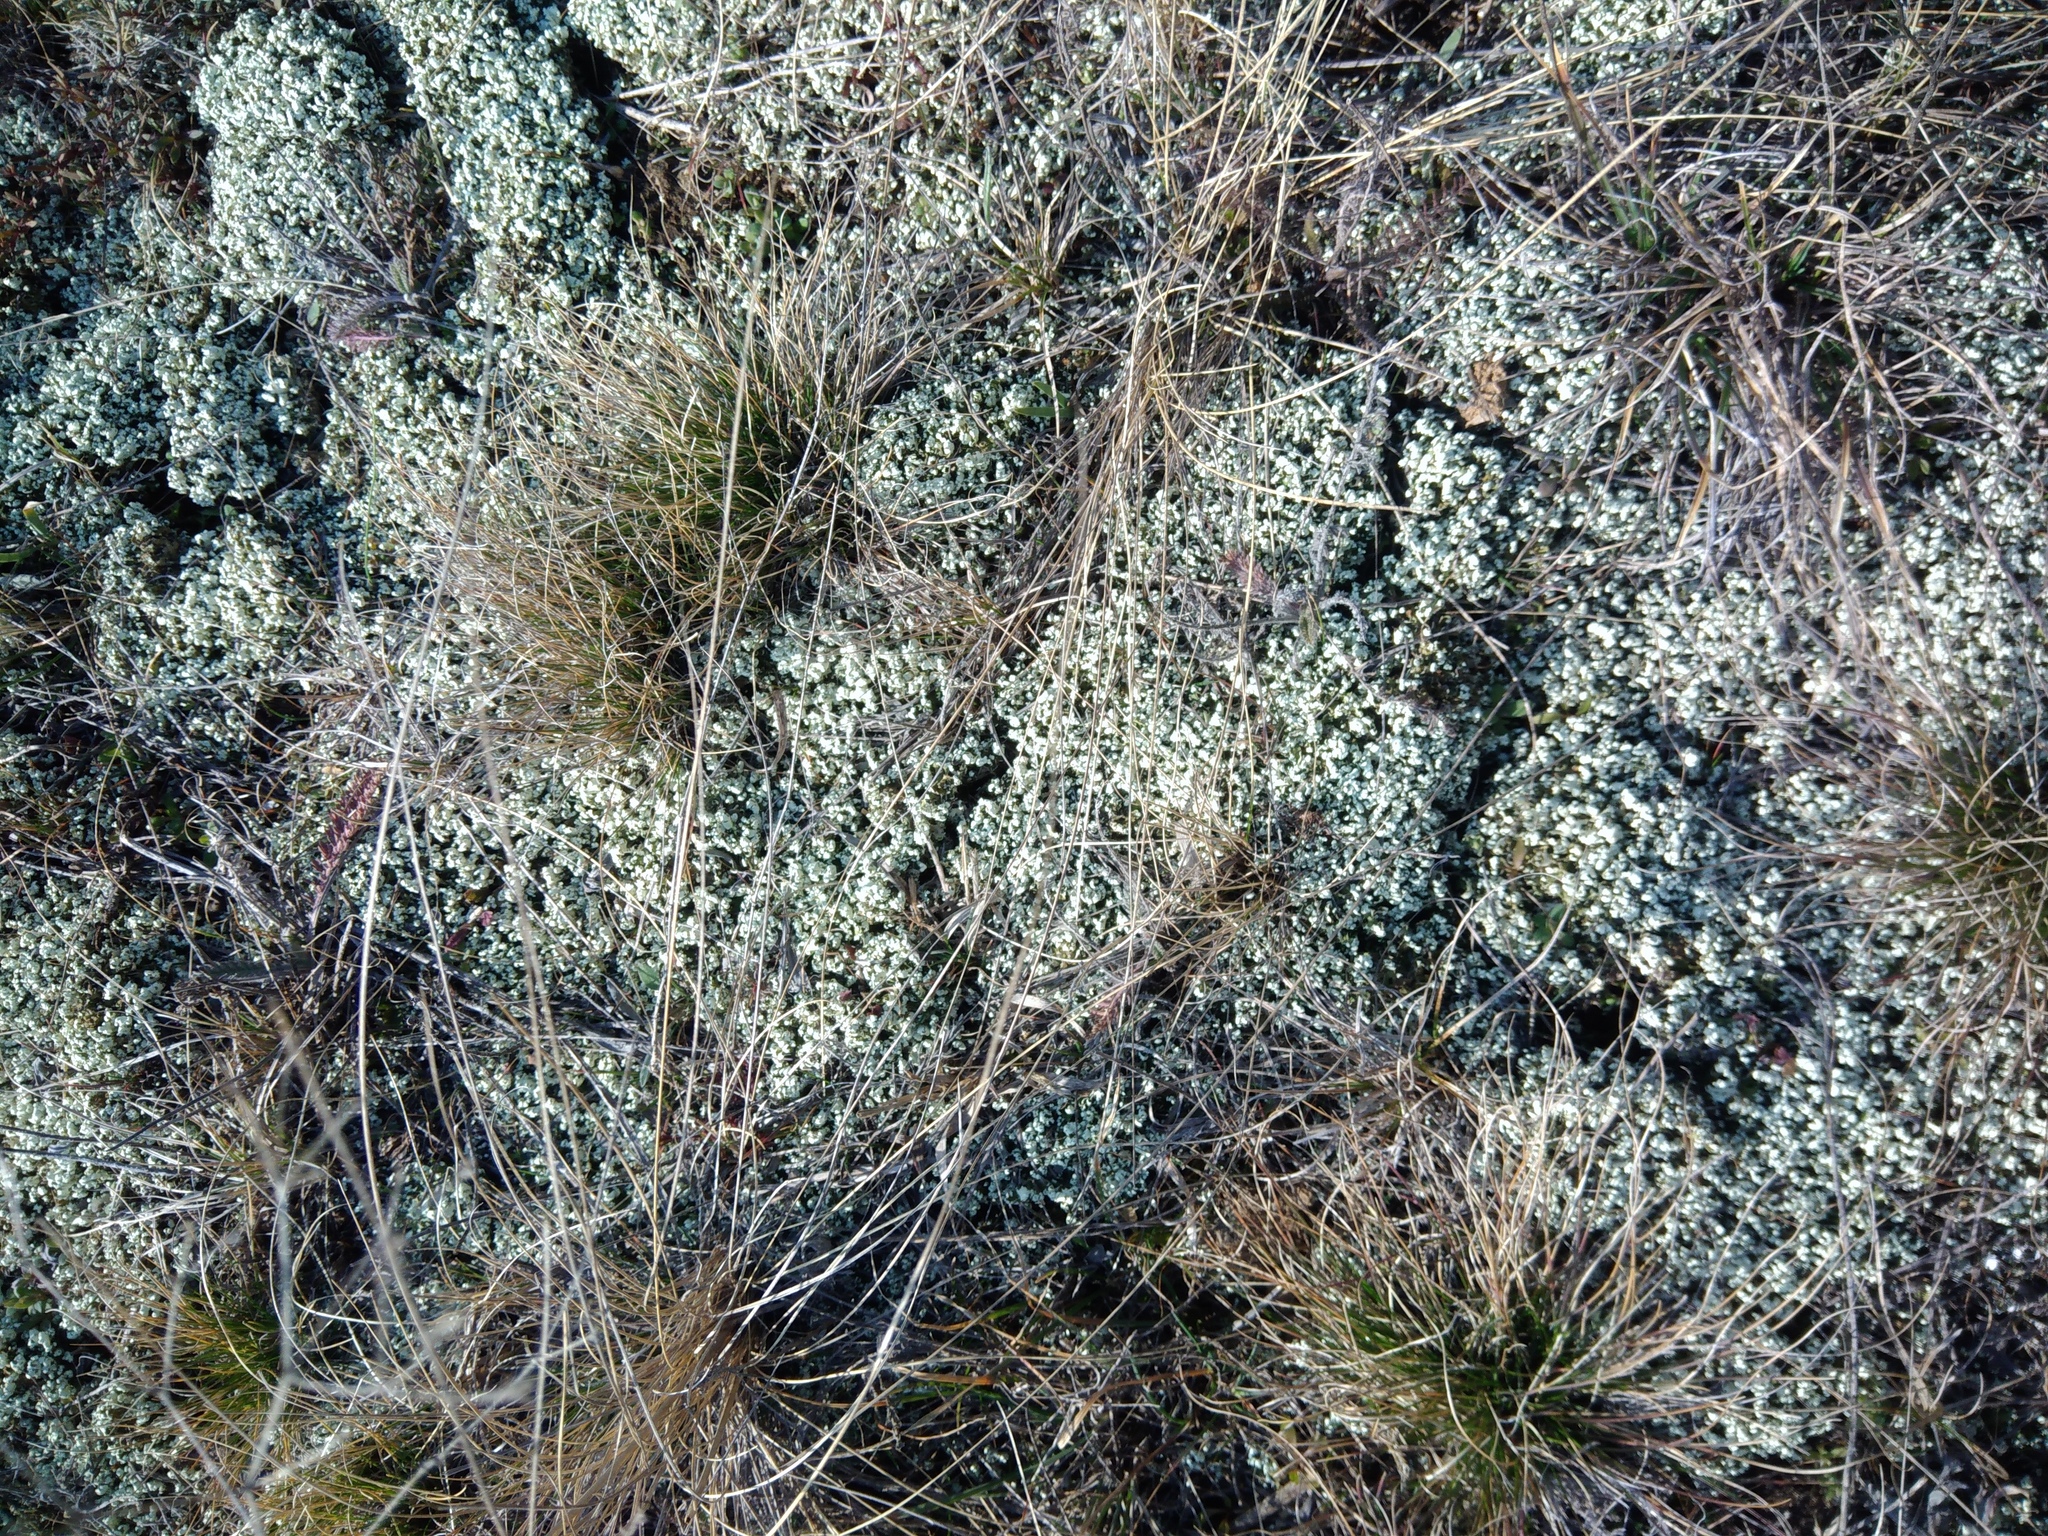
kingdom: Fungi
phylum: Ascomycota
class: Lecanoromycetes
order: Lecanorales
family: Cladoniaceae
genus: Cladonia
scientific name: Cladonia foliacea
